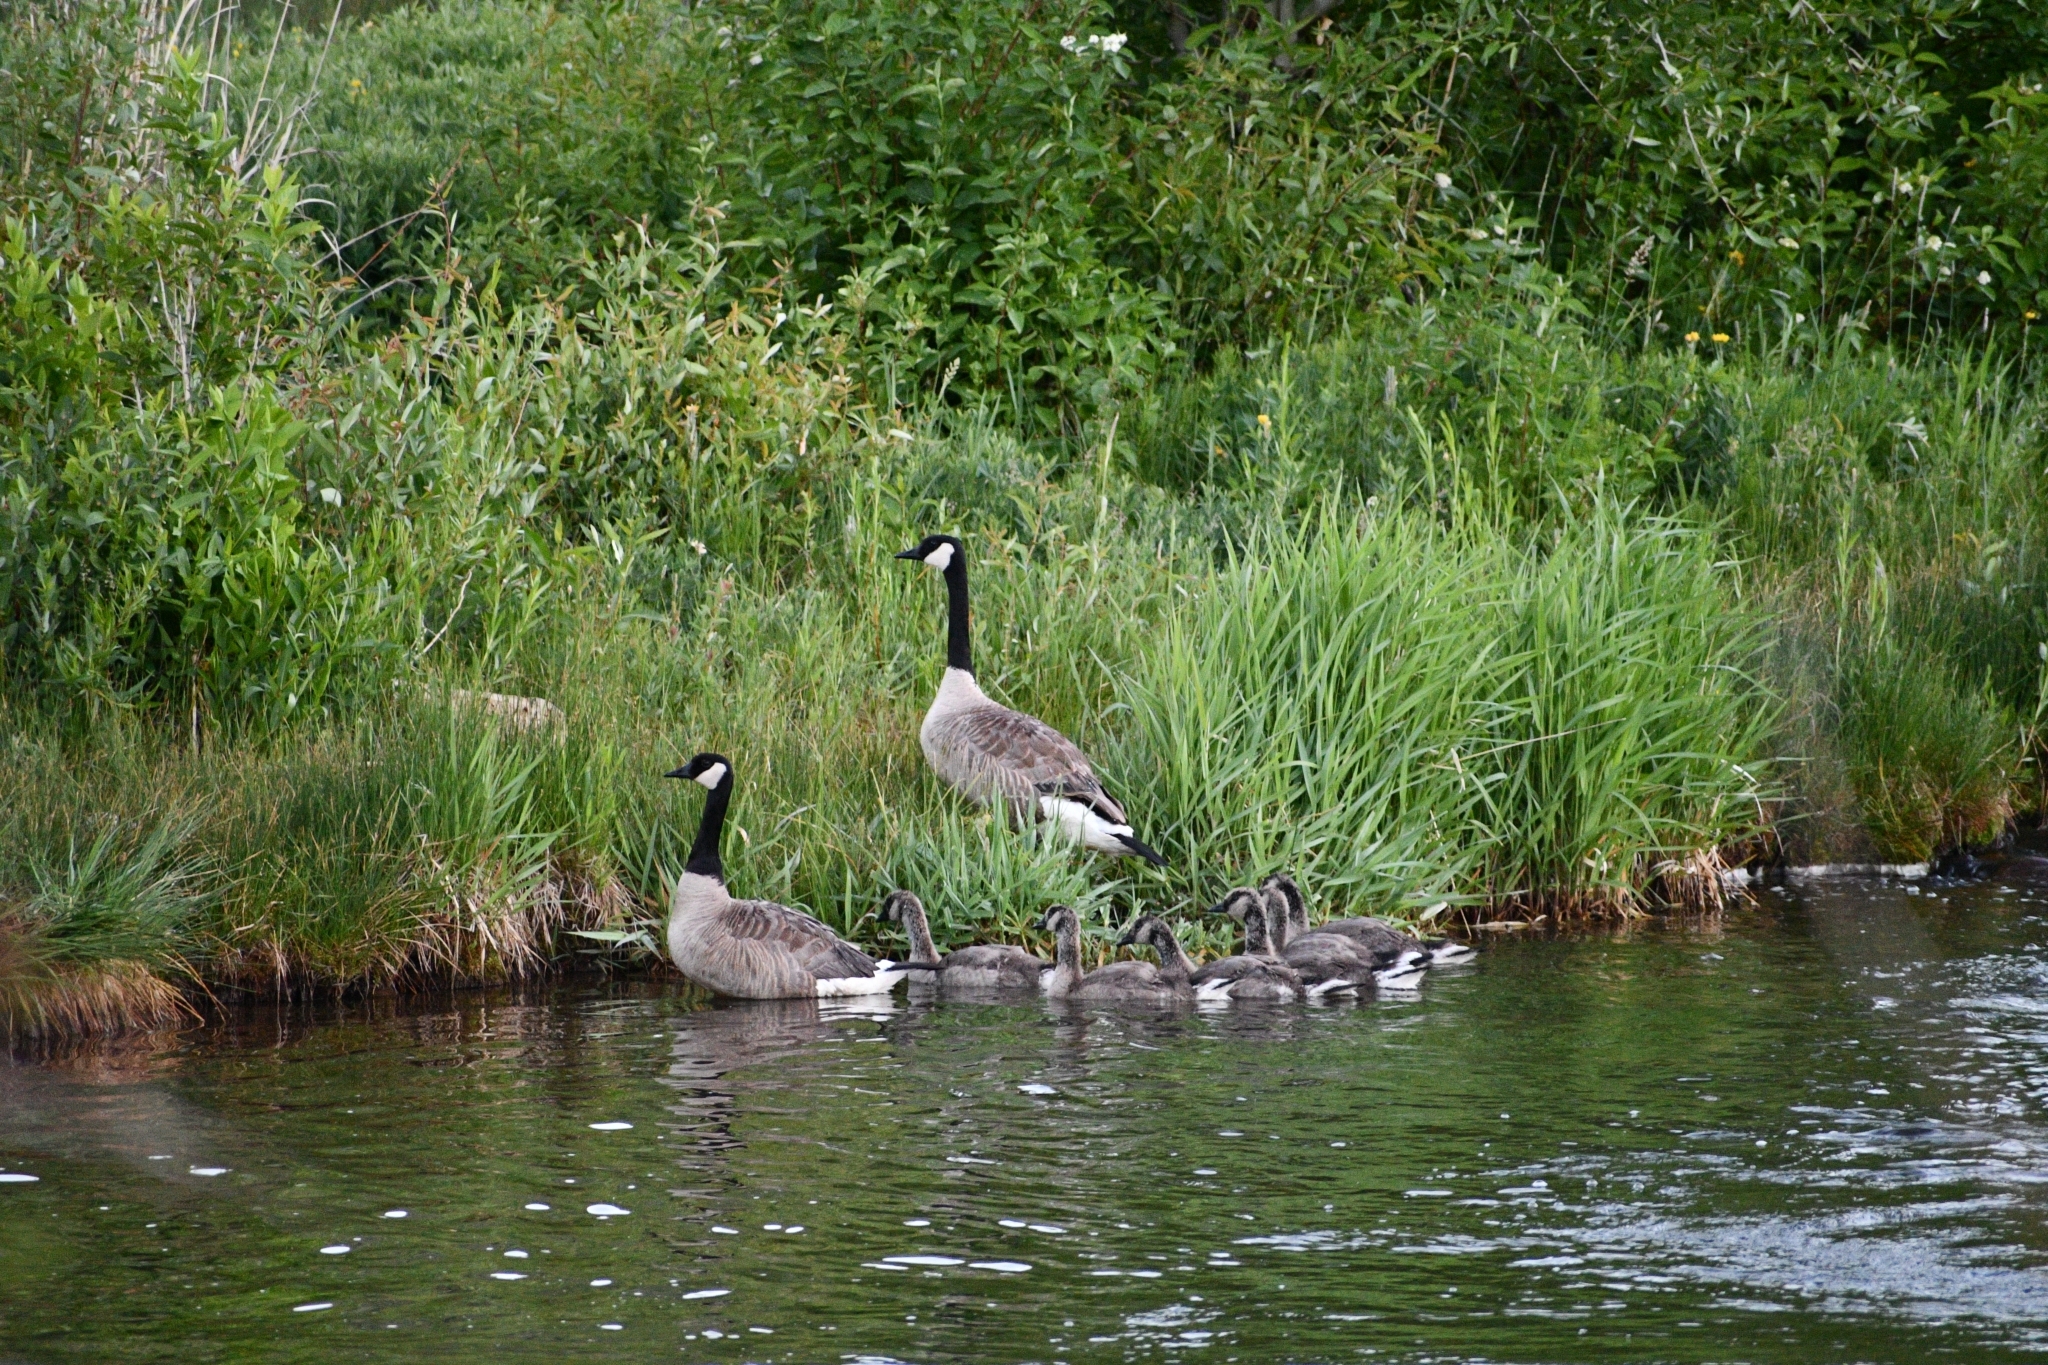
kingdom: Animalia
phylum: Chordata
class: Aves
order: Anseriformes
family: Anatidae
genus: Branta
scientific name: Branta canadensis
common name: Canada goose
